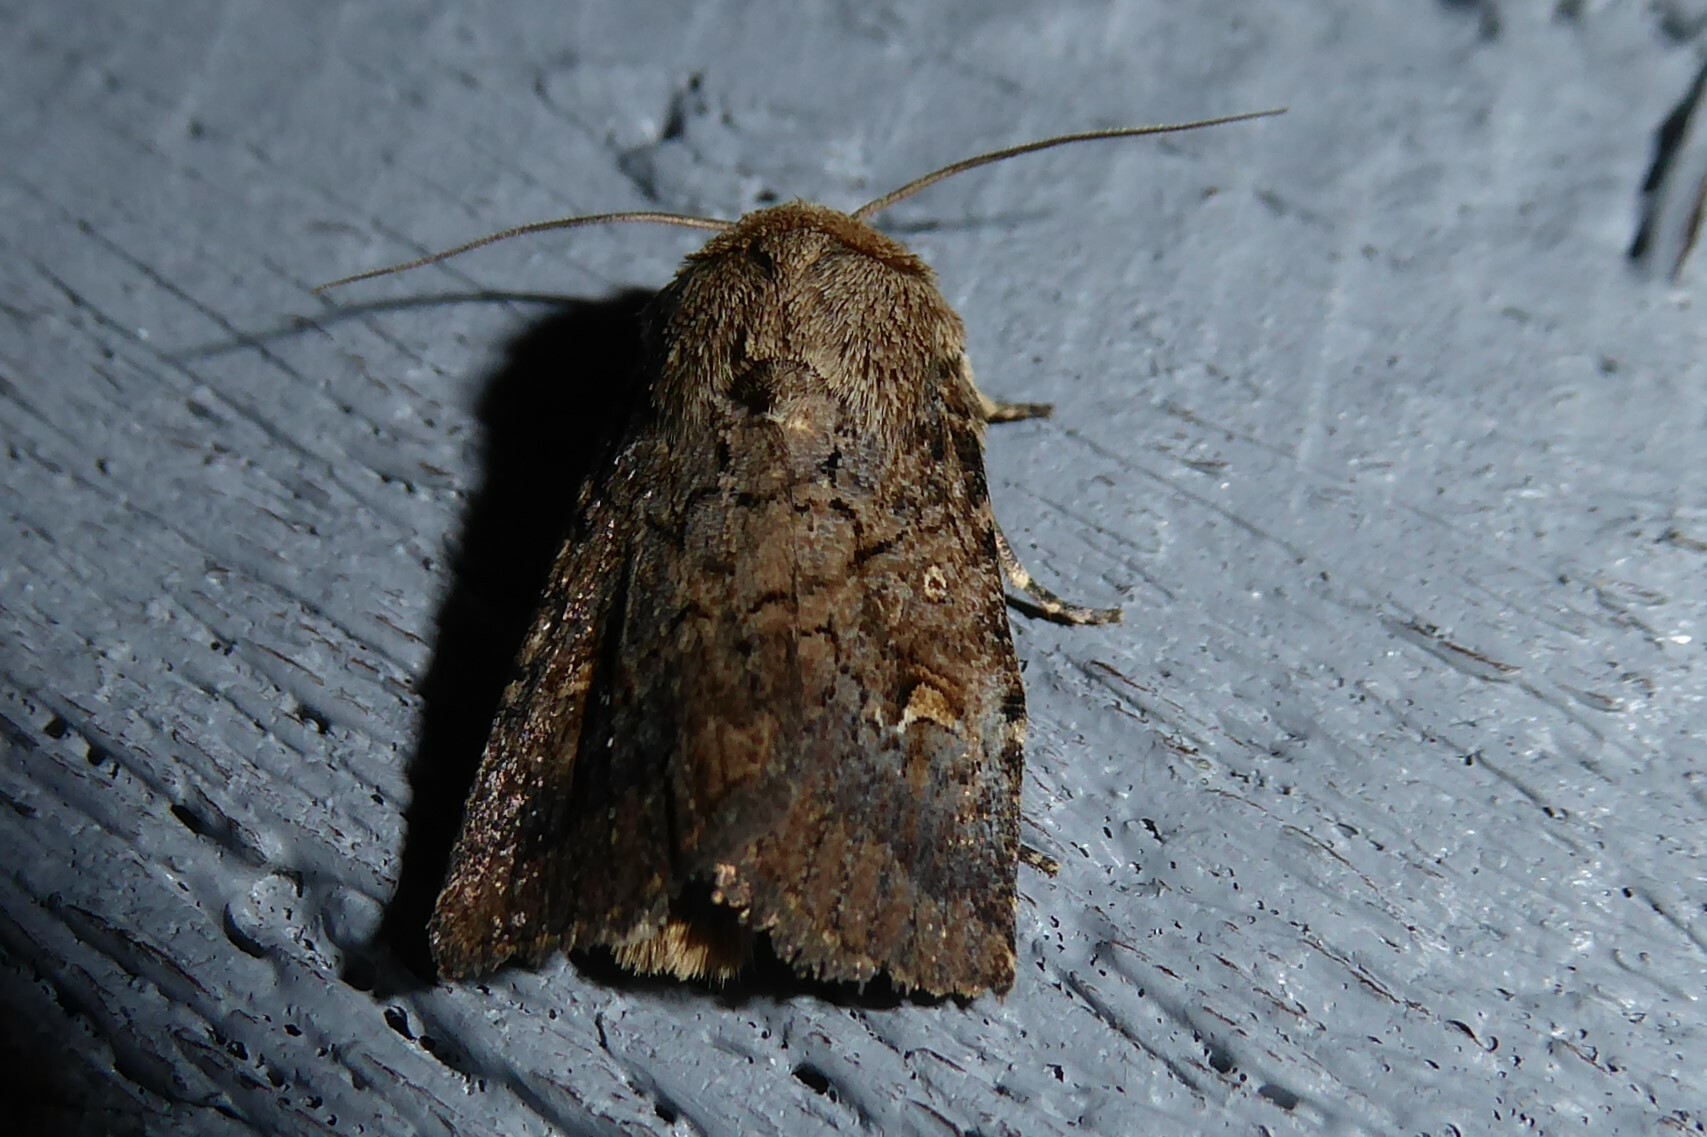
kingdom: Animalia
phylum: Arthropoda
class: Insecta
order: Lepidoptera
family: Noctuidae
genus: Proteuxoa
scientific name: Proteuxoa tetronycha
